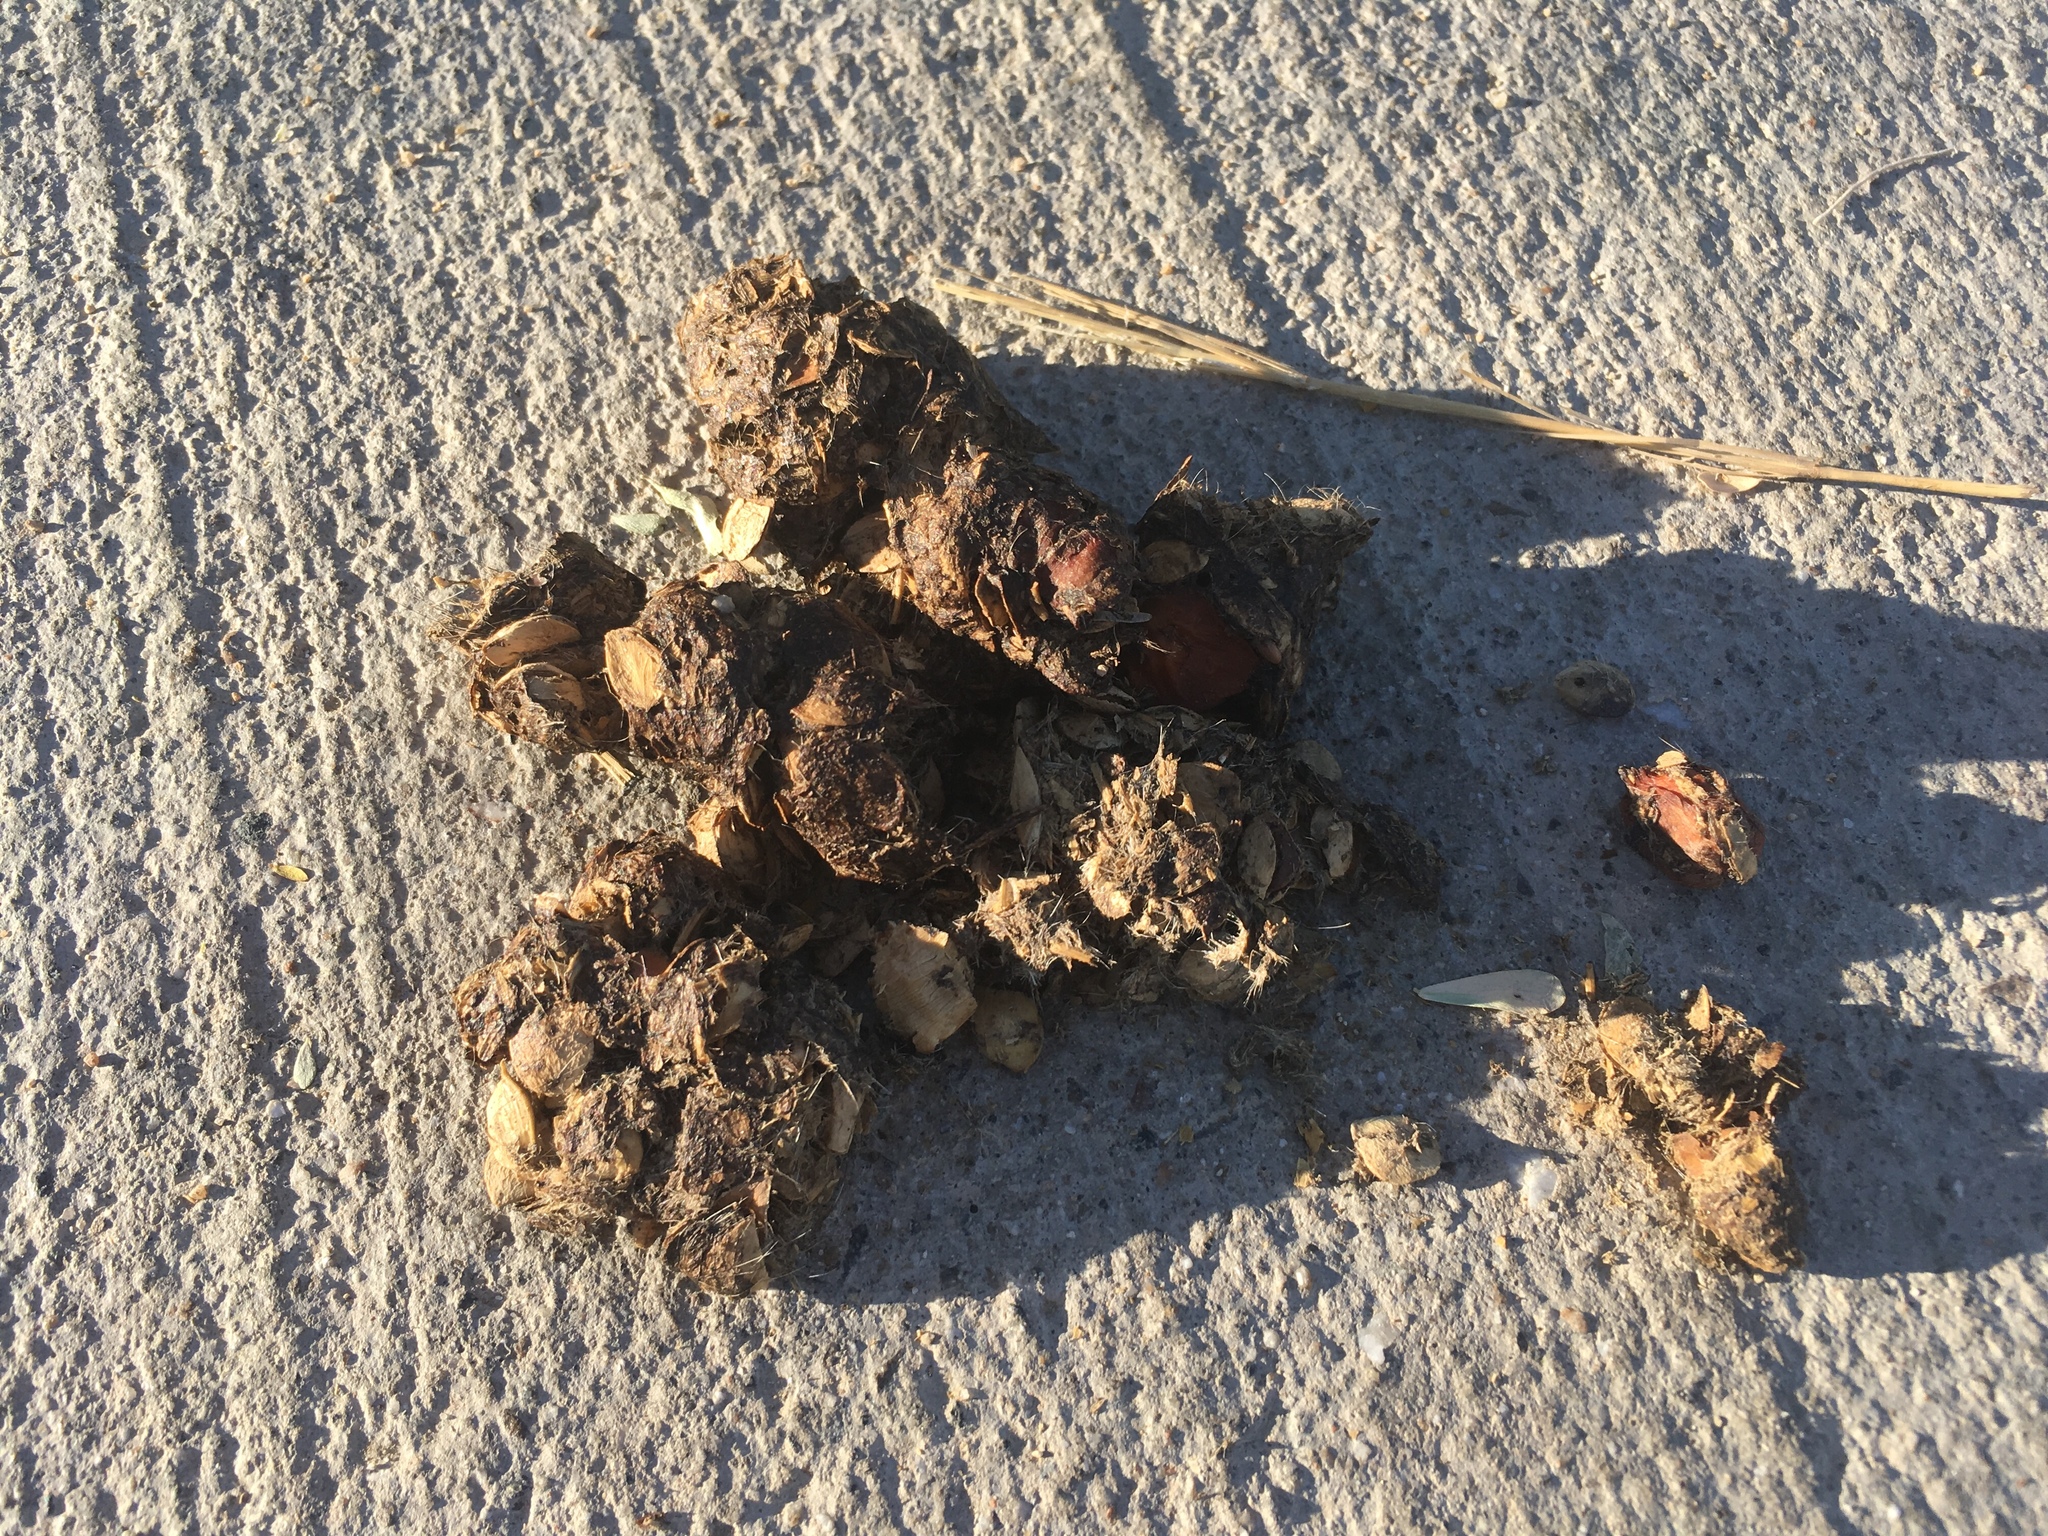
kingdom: Animalia
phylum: Chordata
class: Mammalia
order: Carnivora
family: Canidae
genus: Canis
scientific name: Canis latrans
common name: Coyote
